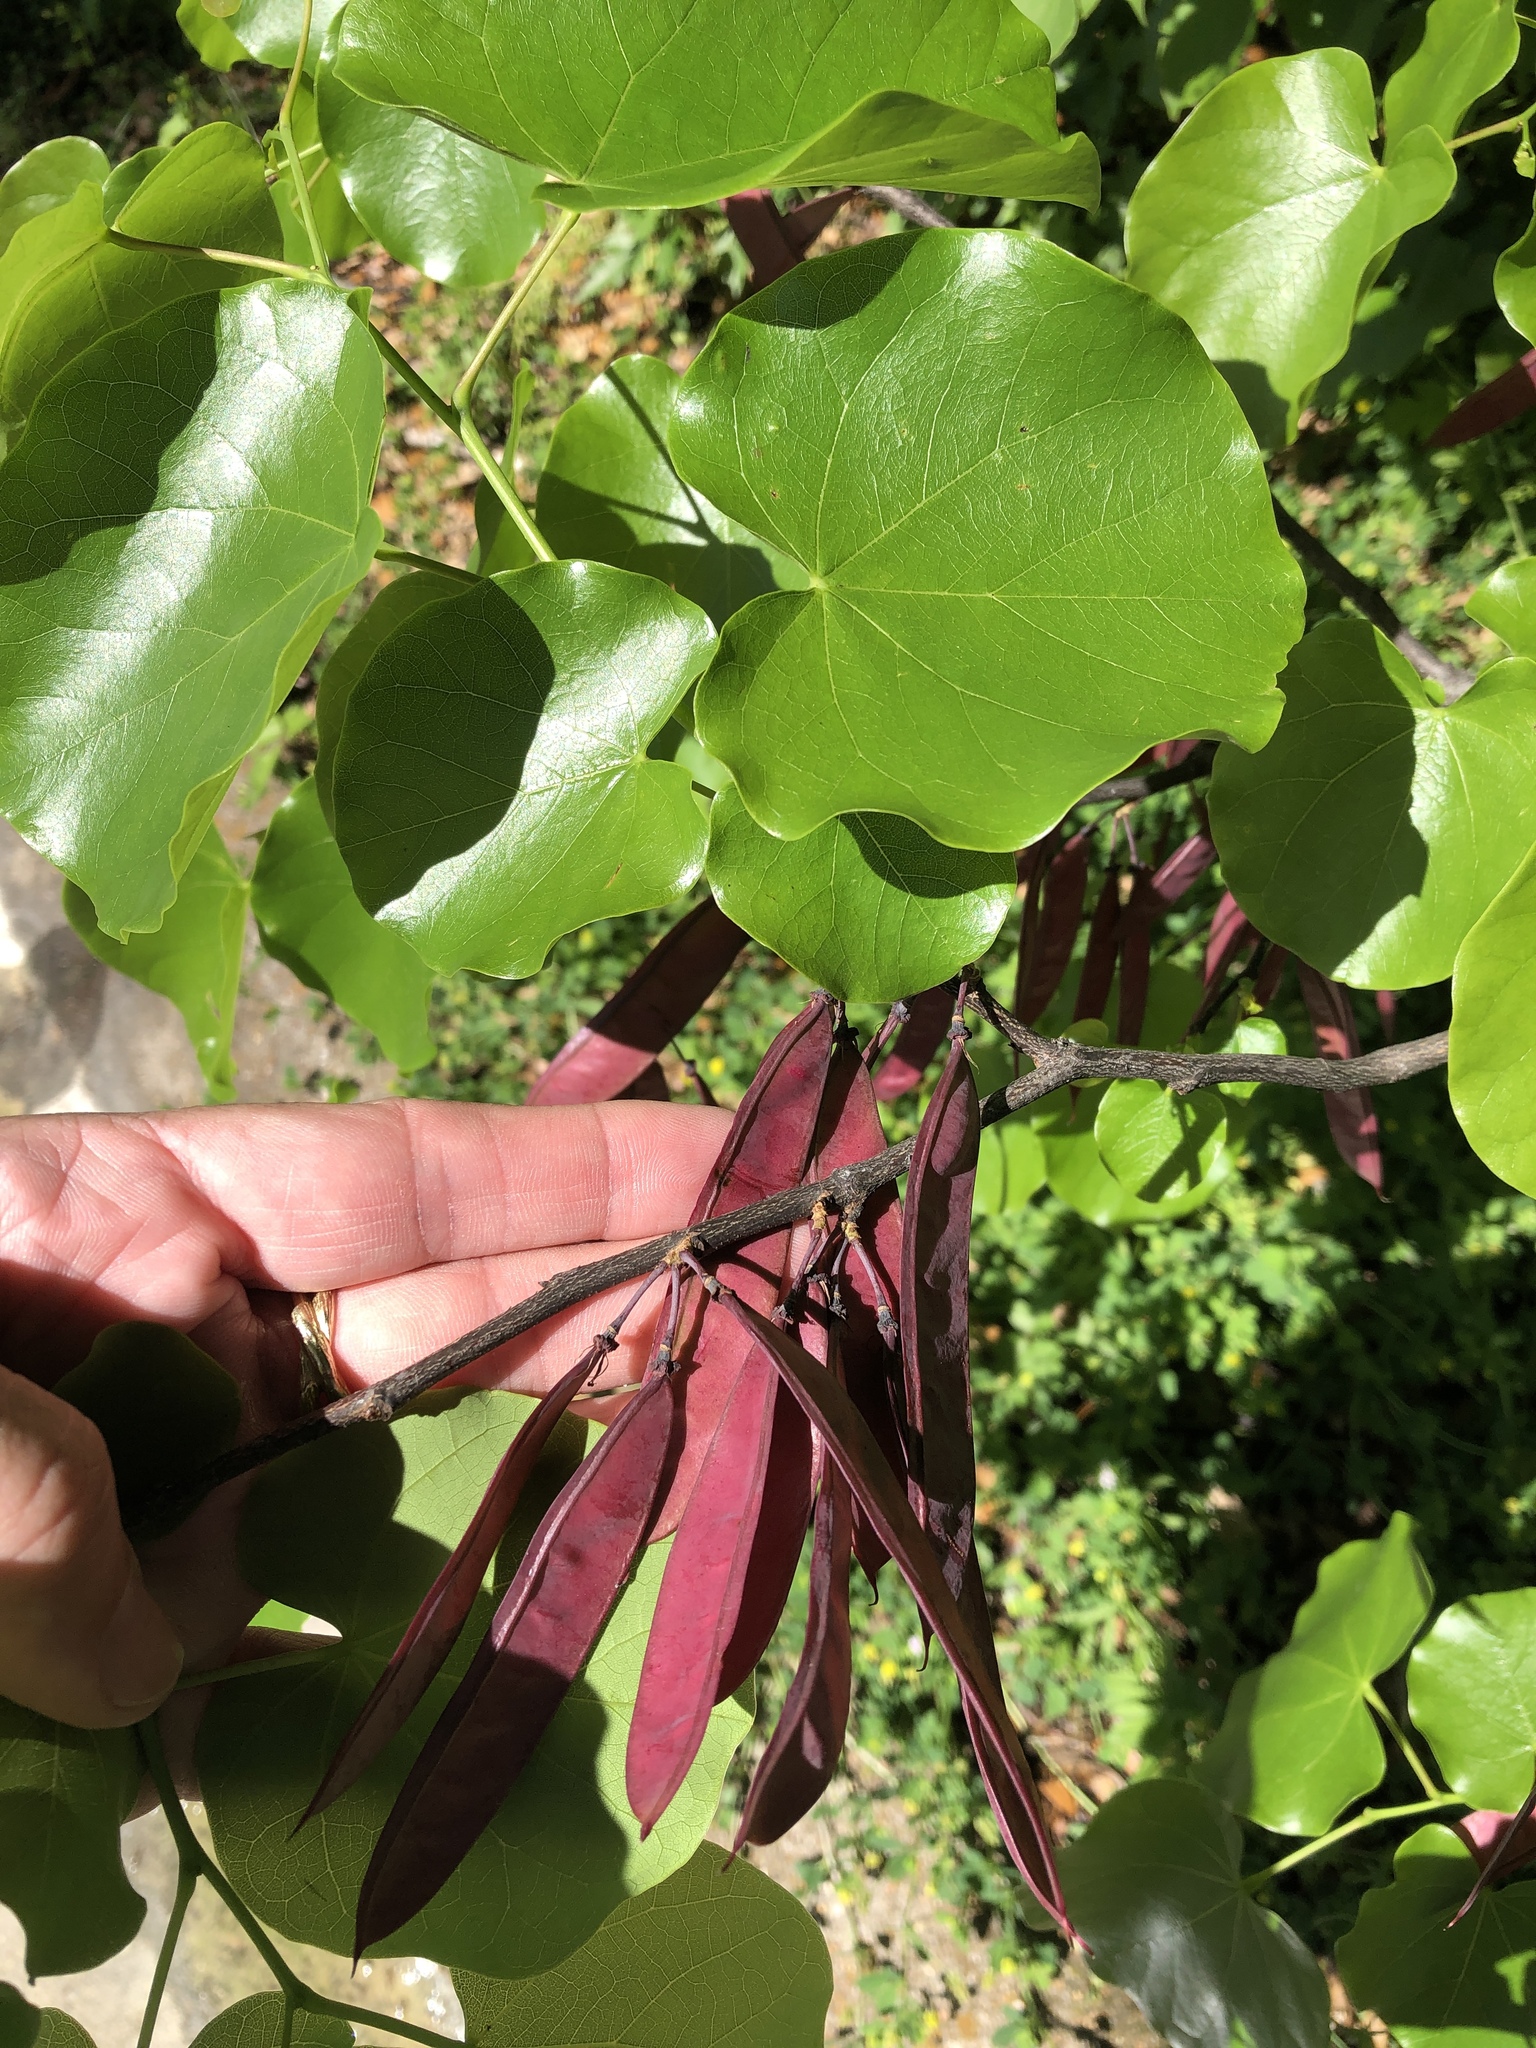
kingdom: Plantae
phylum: Tracheophyta
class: Magnoliopsida
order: Fabales
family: Fabaceae
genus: Cercis
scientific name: Cercis canadensis
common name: Eastern redbud
